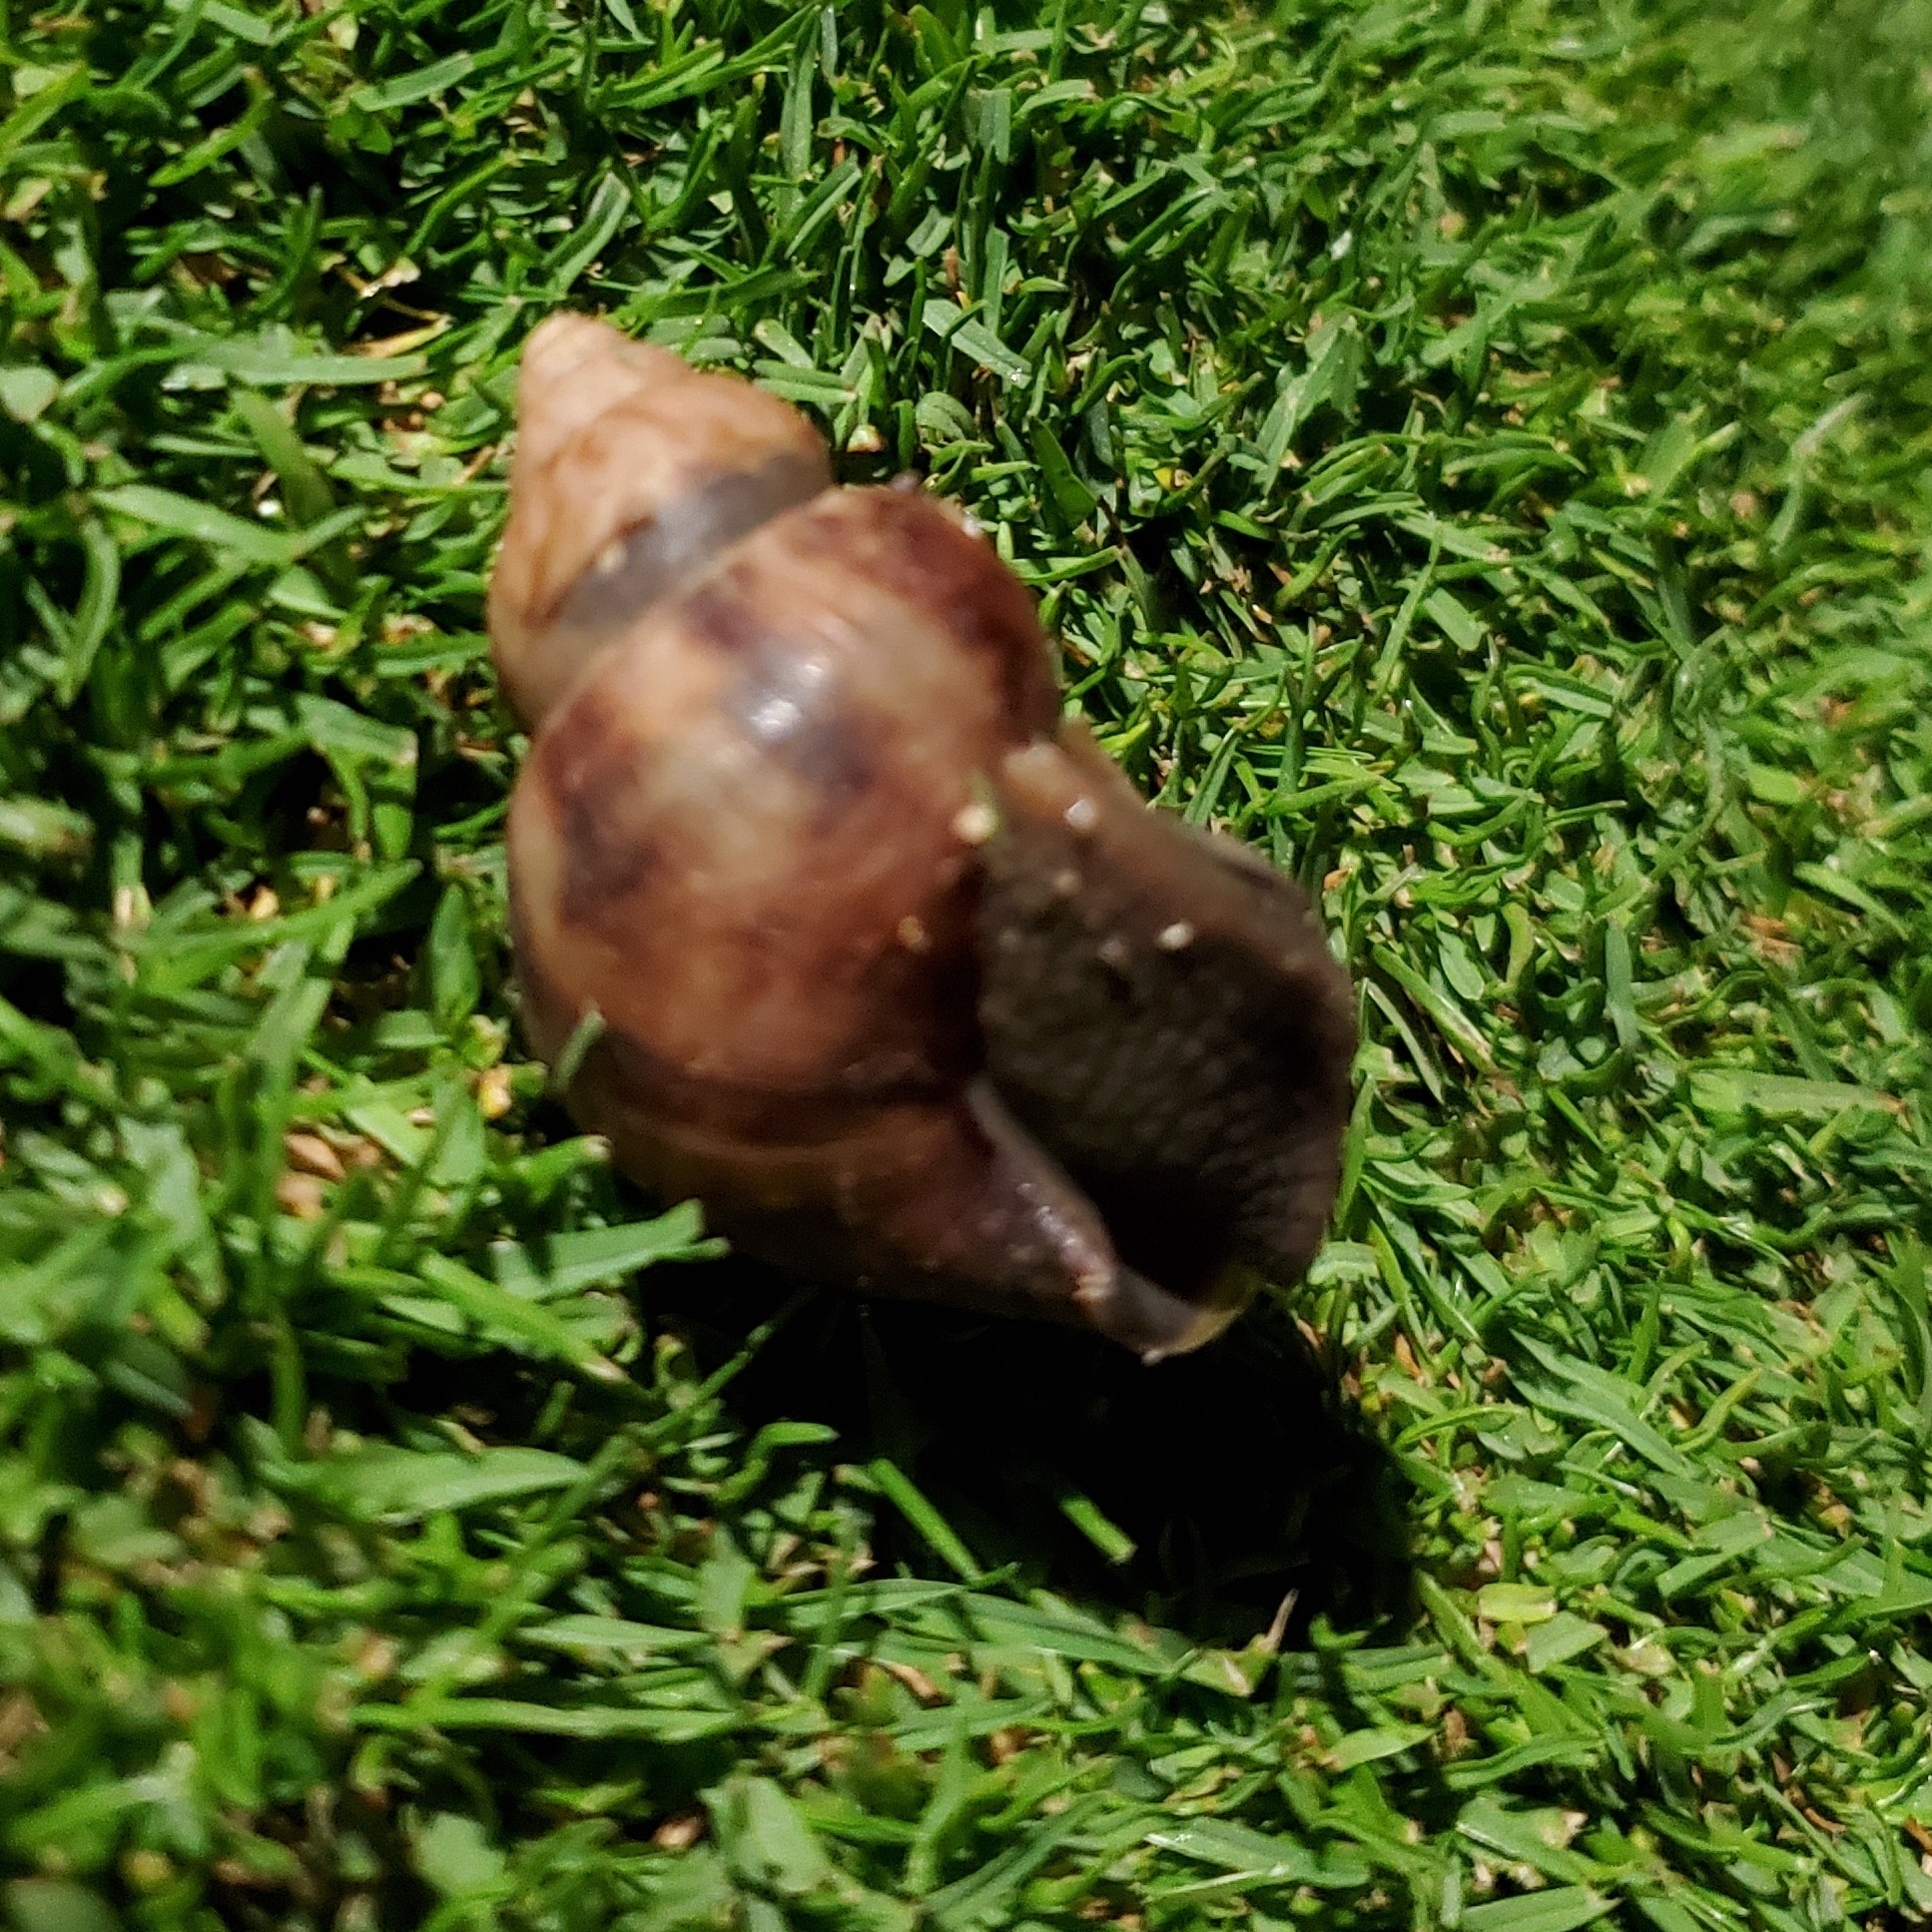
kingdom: Animalia
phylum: Mollusca
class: Gastropoda
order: Stylommatophora
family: Achatinidae
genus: Lissachatina
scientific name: Lissachatina fulica
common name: Giant african snail
